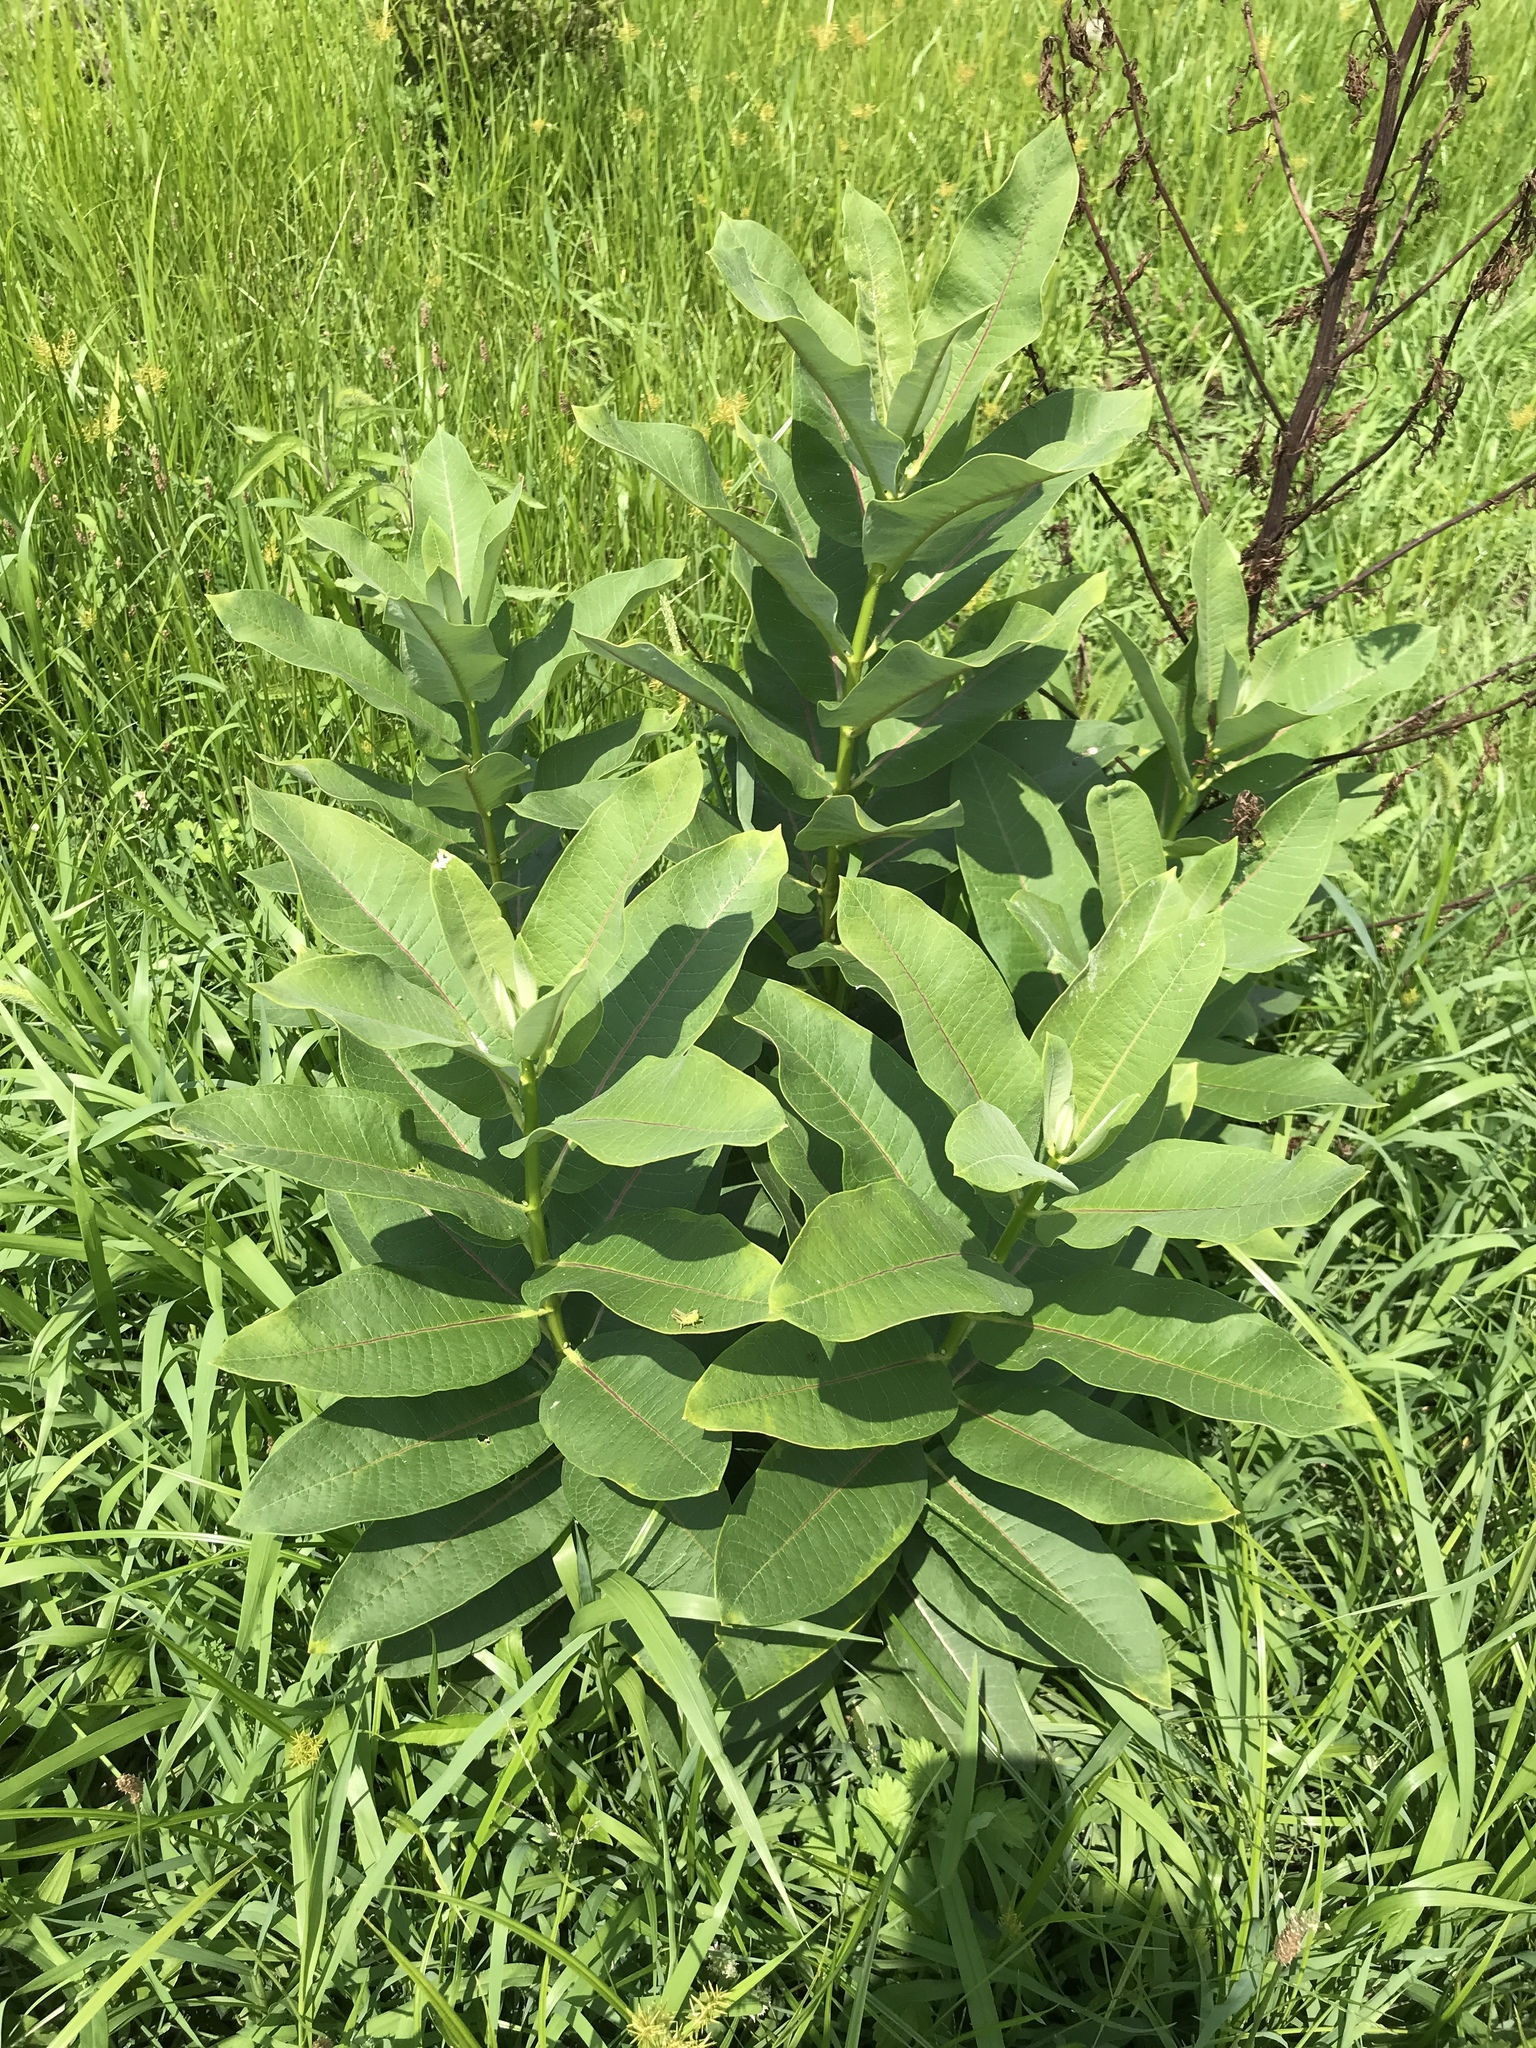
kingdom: Plantae
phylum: Tracheophyta
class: Magnoliopsida
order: Gentianales
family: Apocynaceae
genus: Asclepias
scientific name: Asclepias syriaca
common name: Common milkweed
